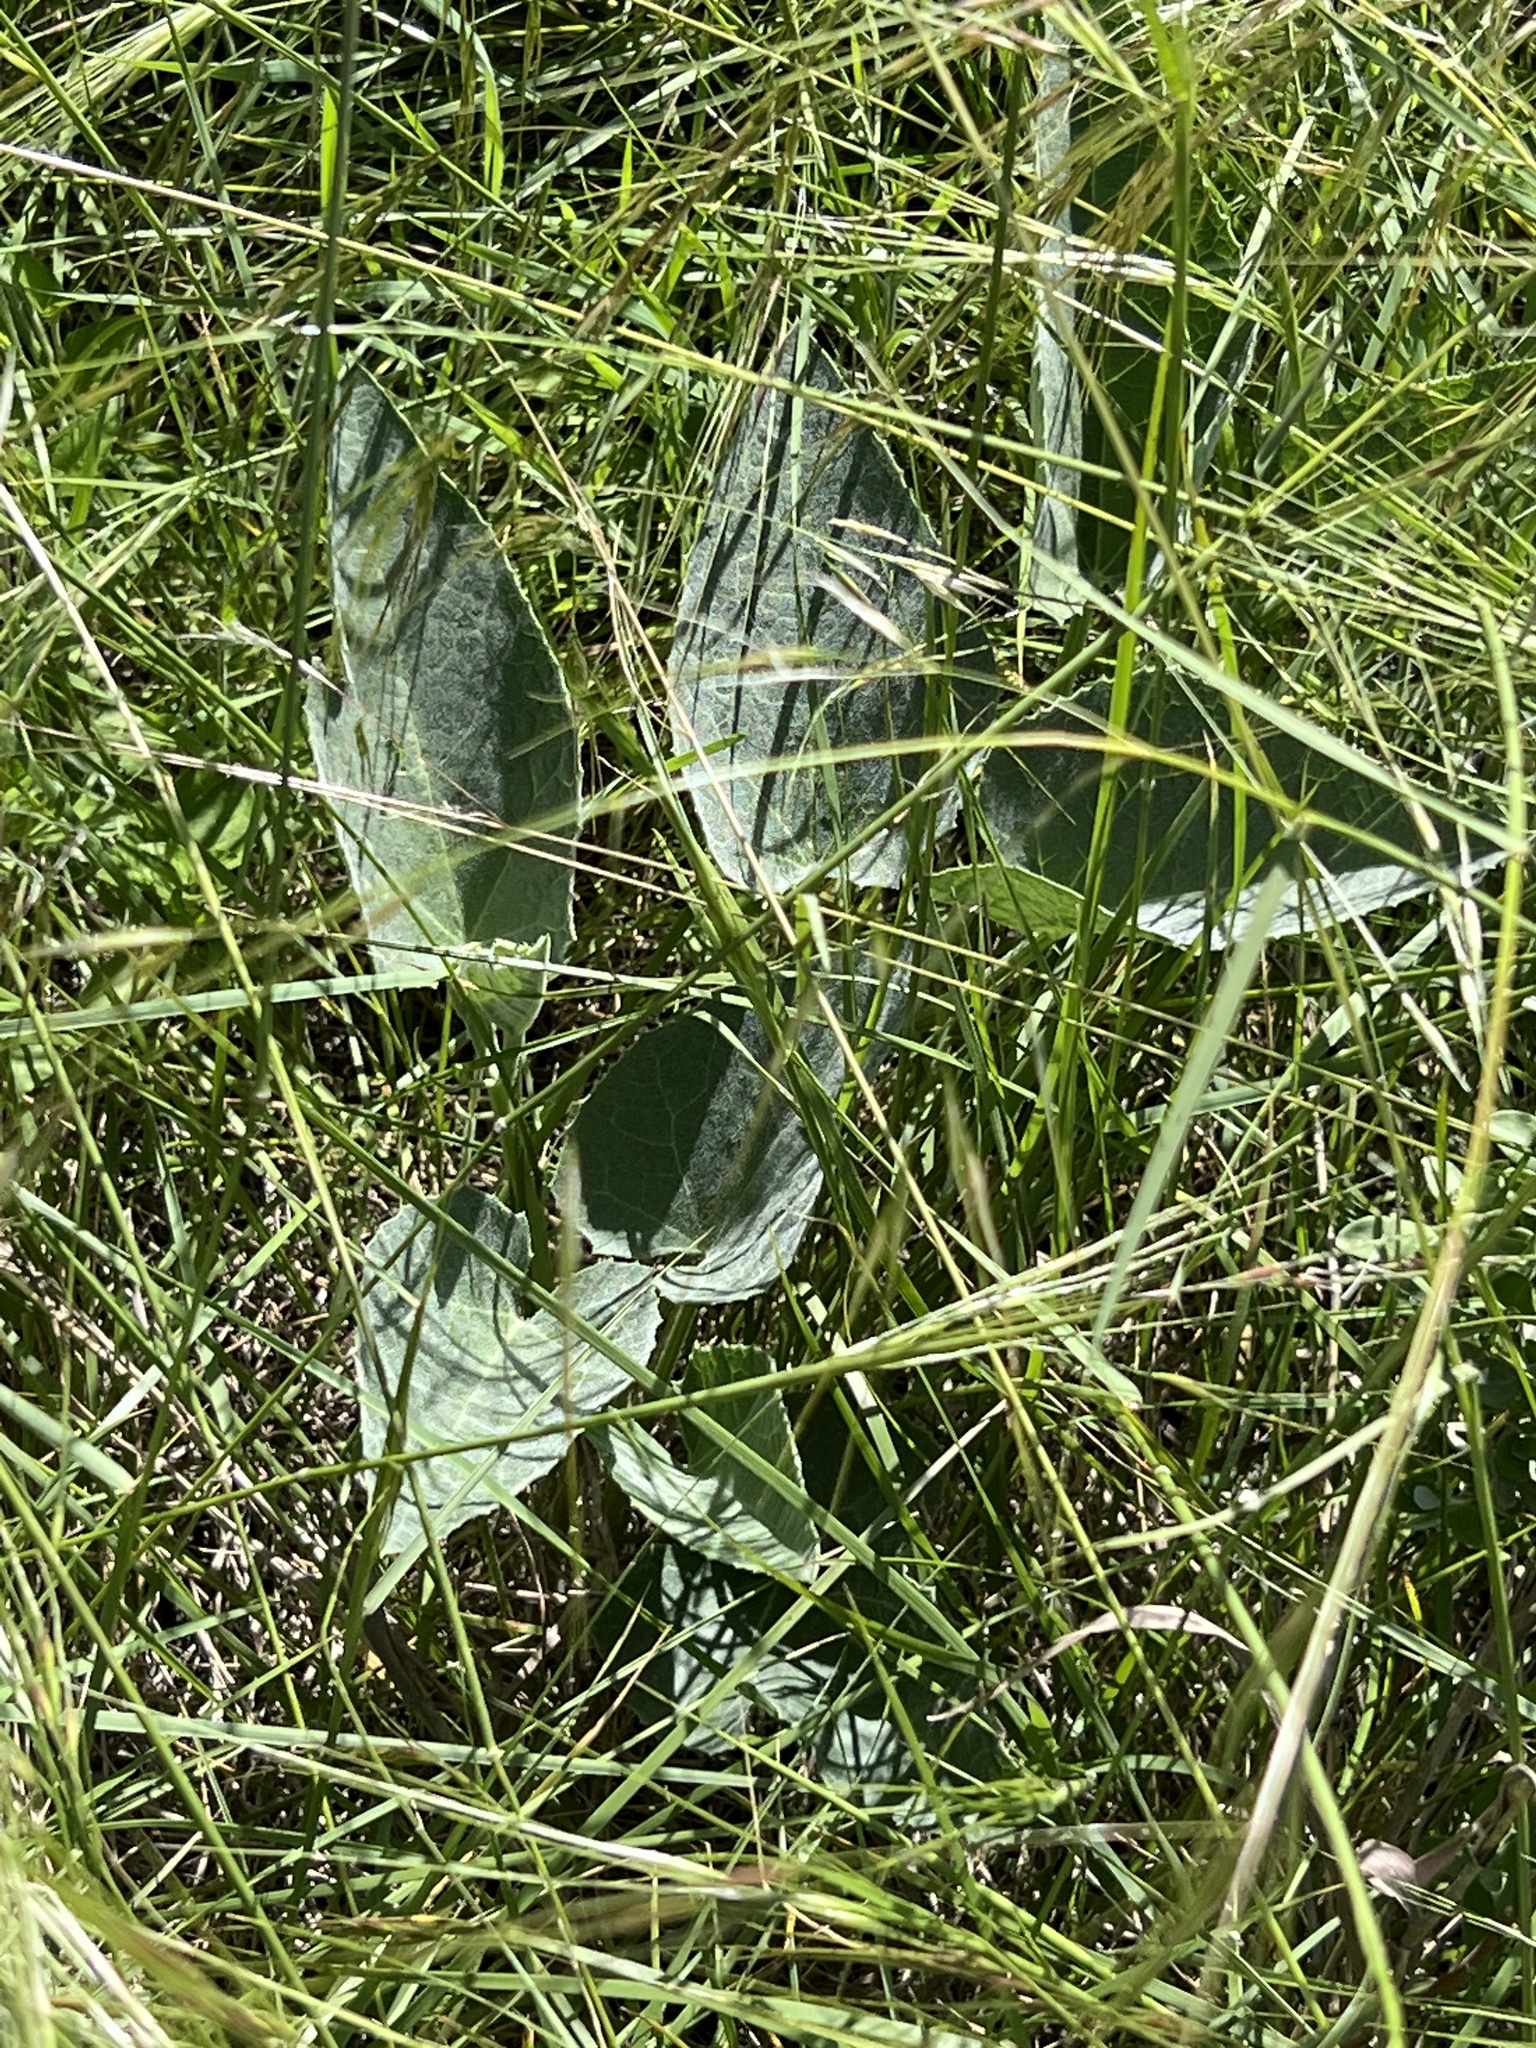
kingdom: Plantae
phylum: Tracheophyta
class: Magnoliopsida
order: Cucurbitales
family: Cucurbitaceae
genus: Cucurbita
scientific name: Cucurbita foetidissima
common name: Buffalo gourd
